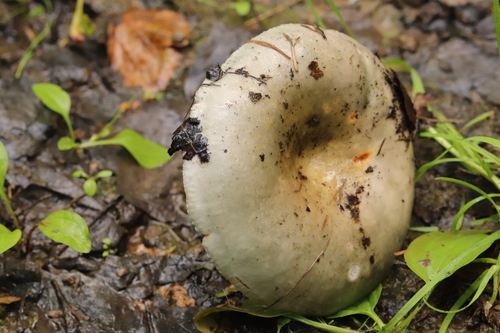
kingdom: Fungi
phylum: Basidiomycota
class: Agaricomycetes
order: Russulales
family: Russulaceae
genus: Russula
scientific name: Russula
